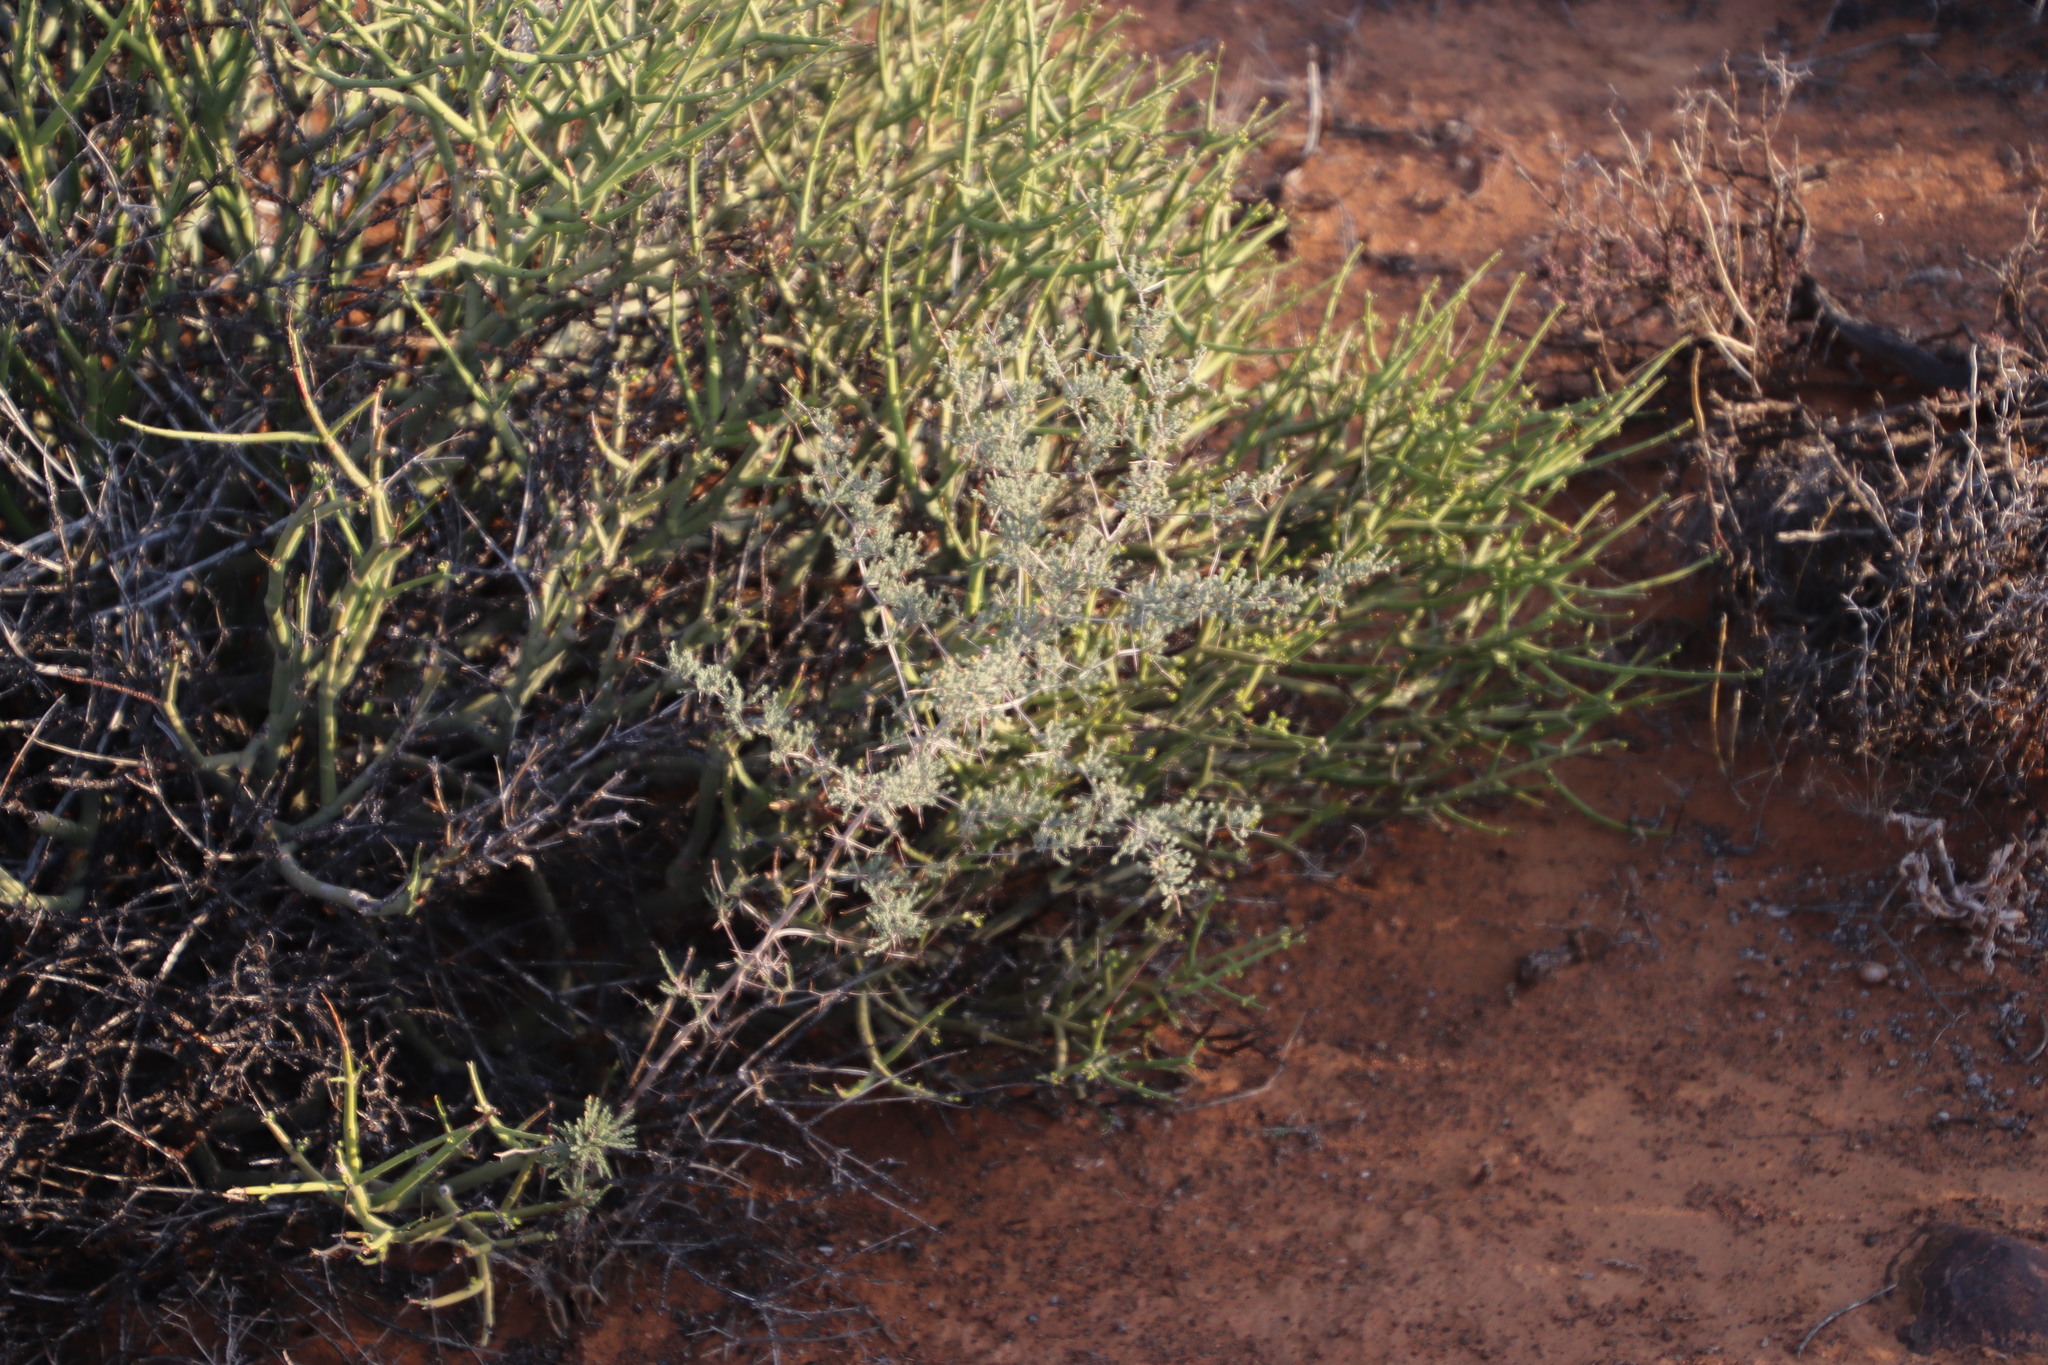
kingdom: Plantae
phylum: Tracheophyta
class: Liliopsida
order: Asparagales
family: Asparagaceae
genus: Asparagus
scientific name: Asparagus capensis
